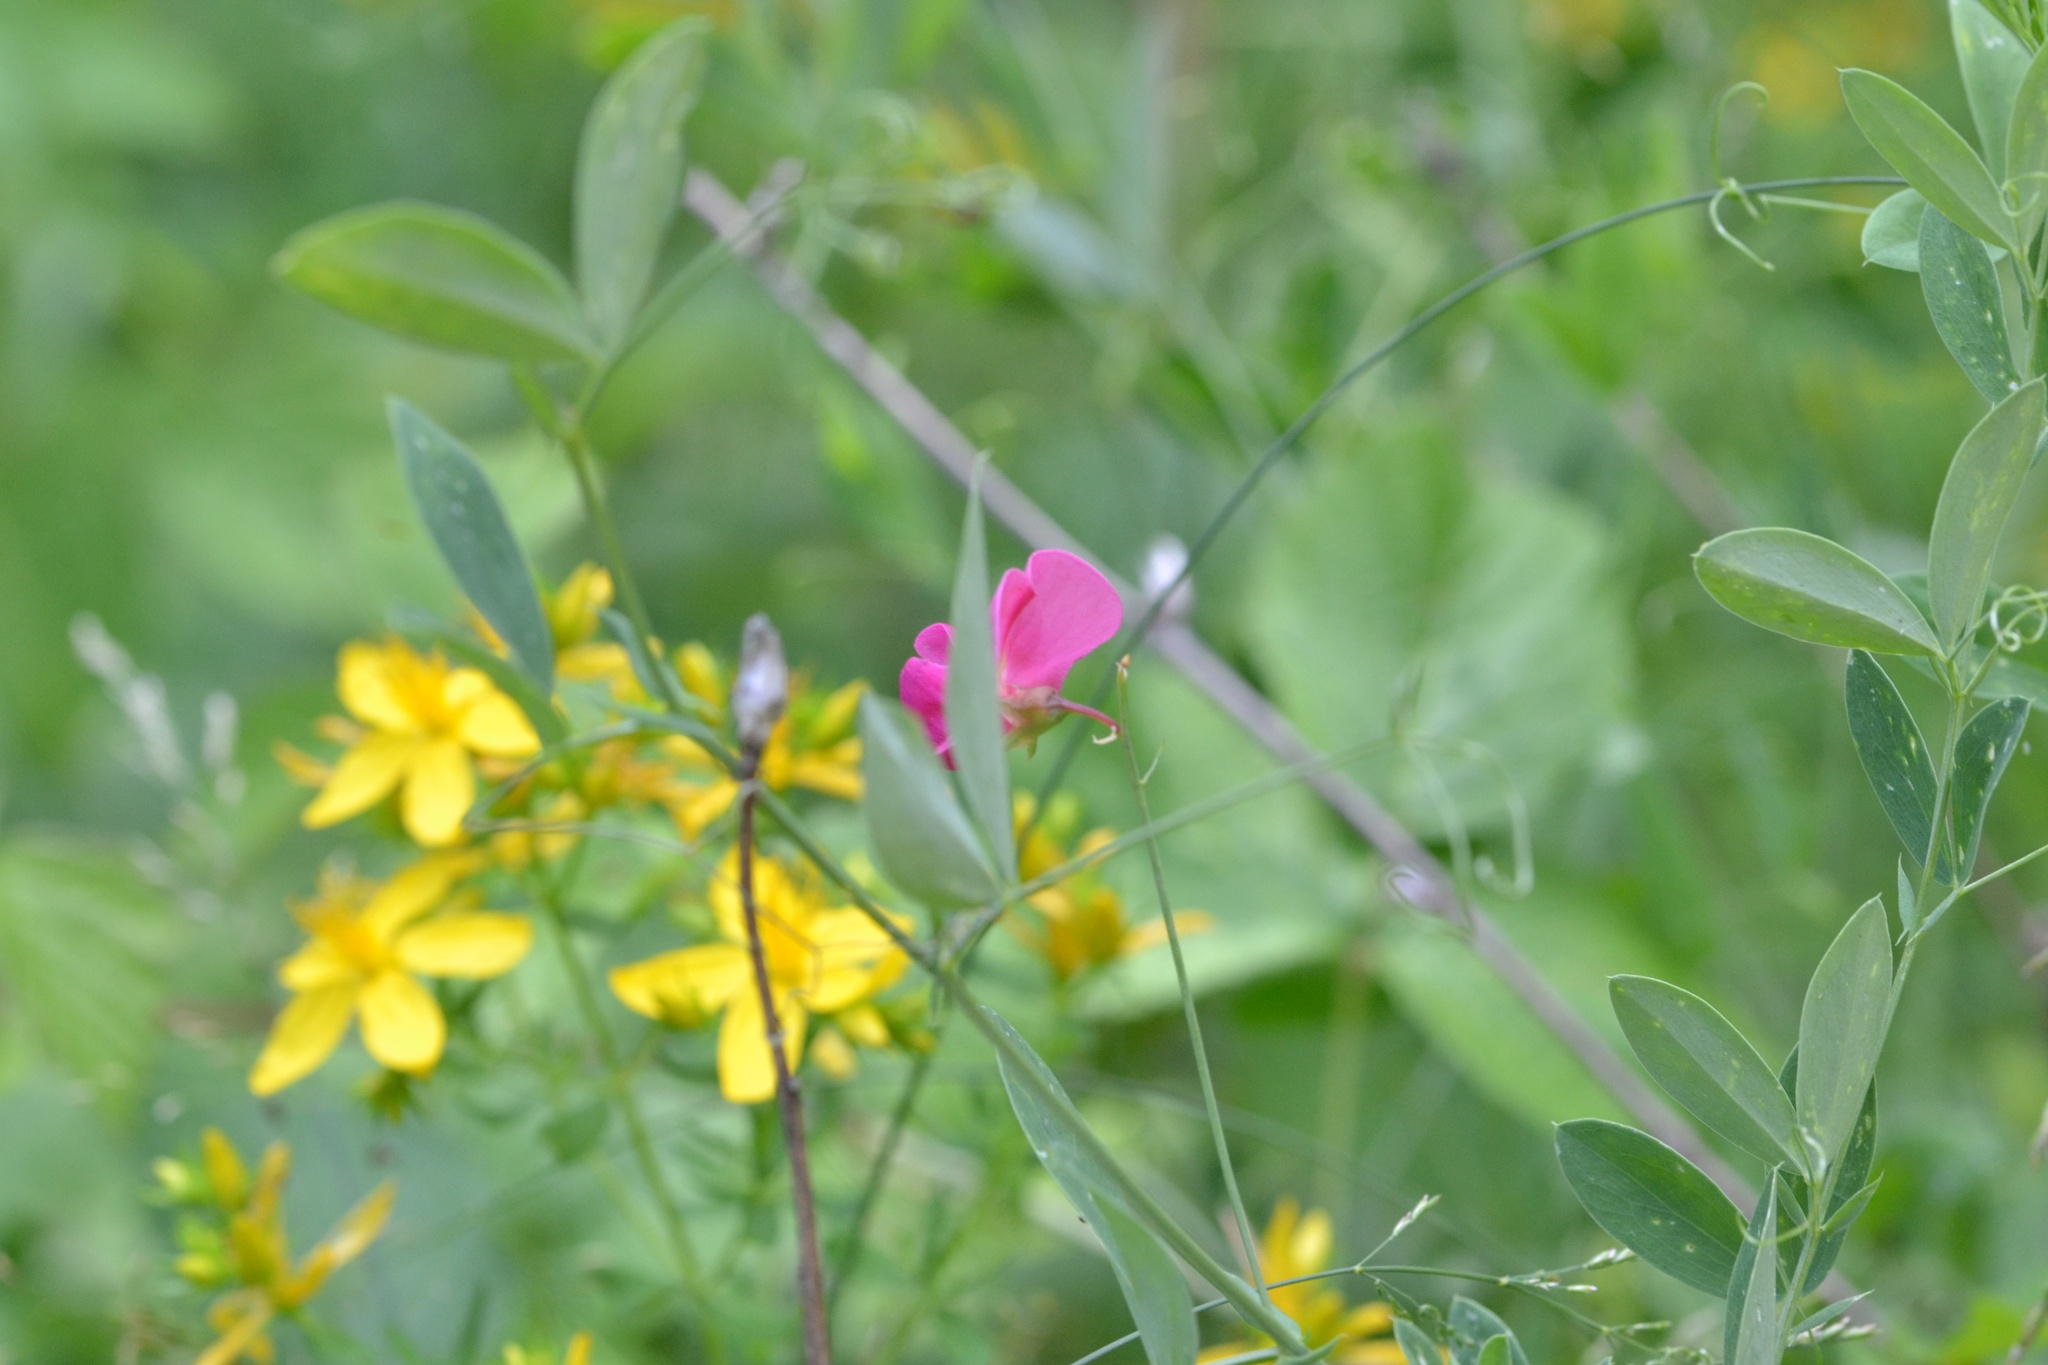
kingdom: Plantae
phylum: Tracheophyta
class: Magnoliopsida
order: Fabales
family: Fabaceae
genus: Lathyrus
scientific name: Lathyrus tuberosus
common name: Tuberous pea
